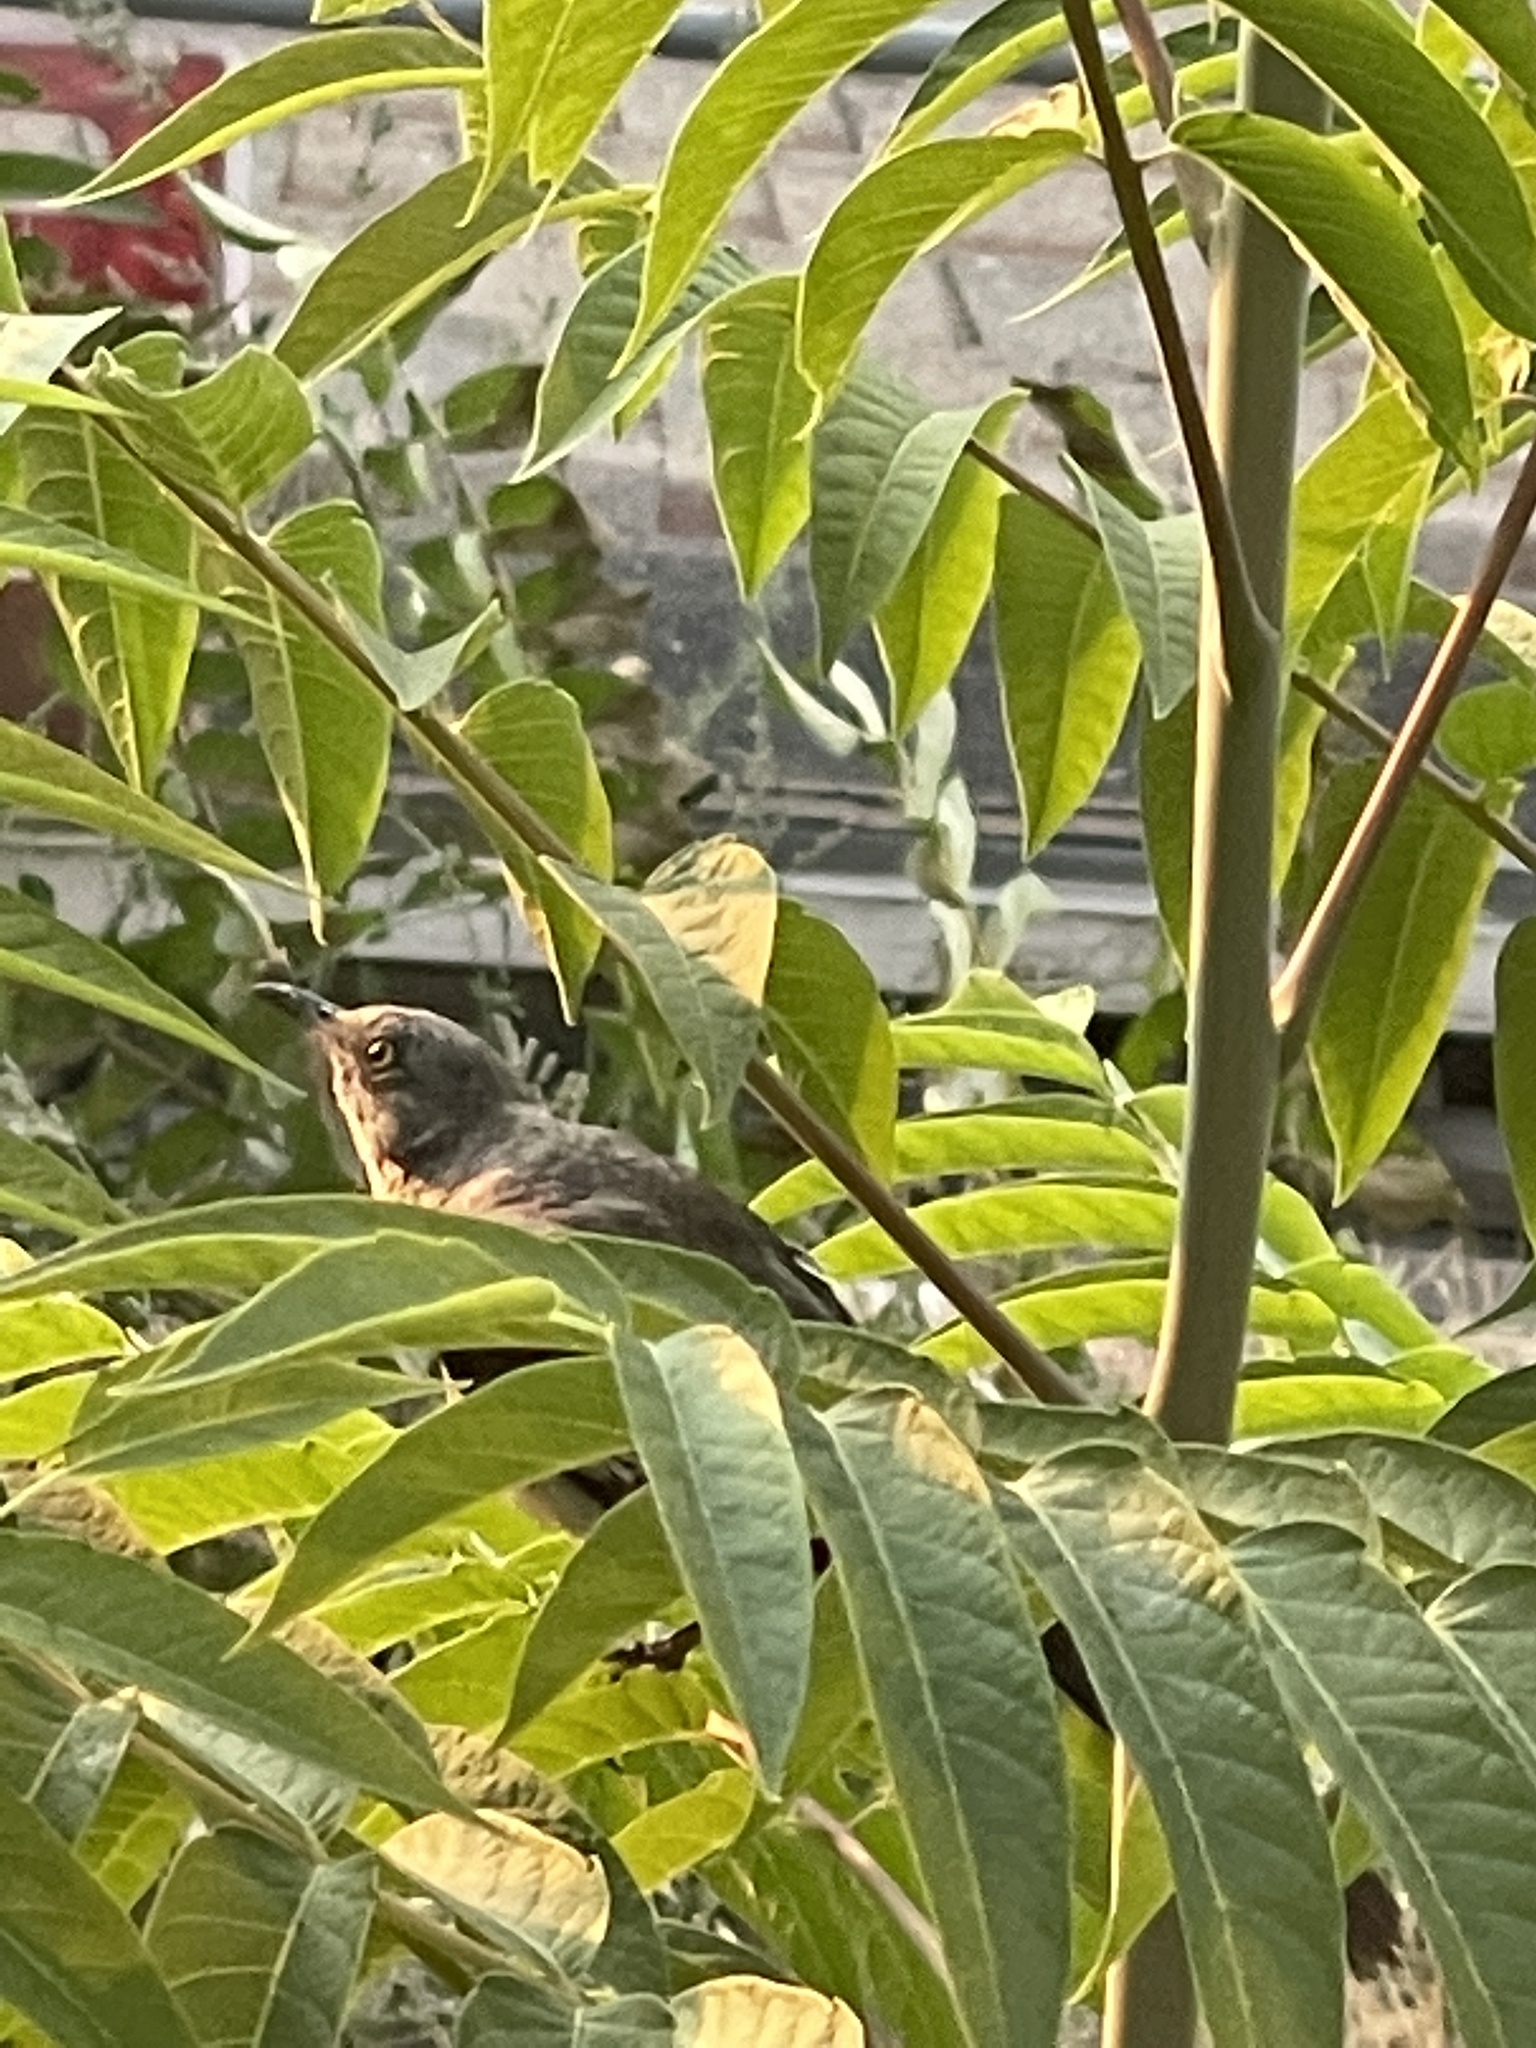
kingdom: Animalia
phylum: Chordata
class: Aves
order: Passeriformes
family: Mimidae
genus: Mimus
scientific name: Mimus polyglottos
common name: Northern mockingbird
